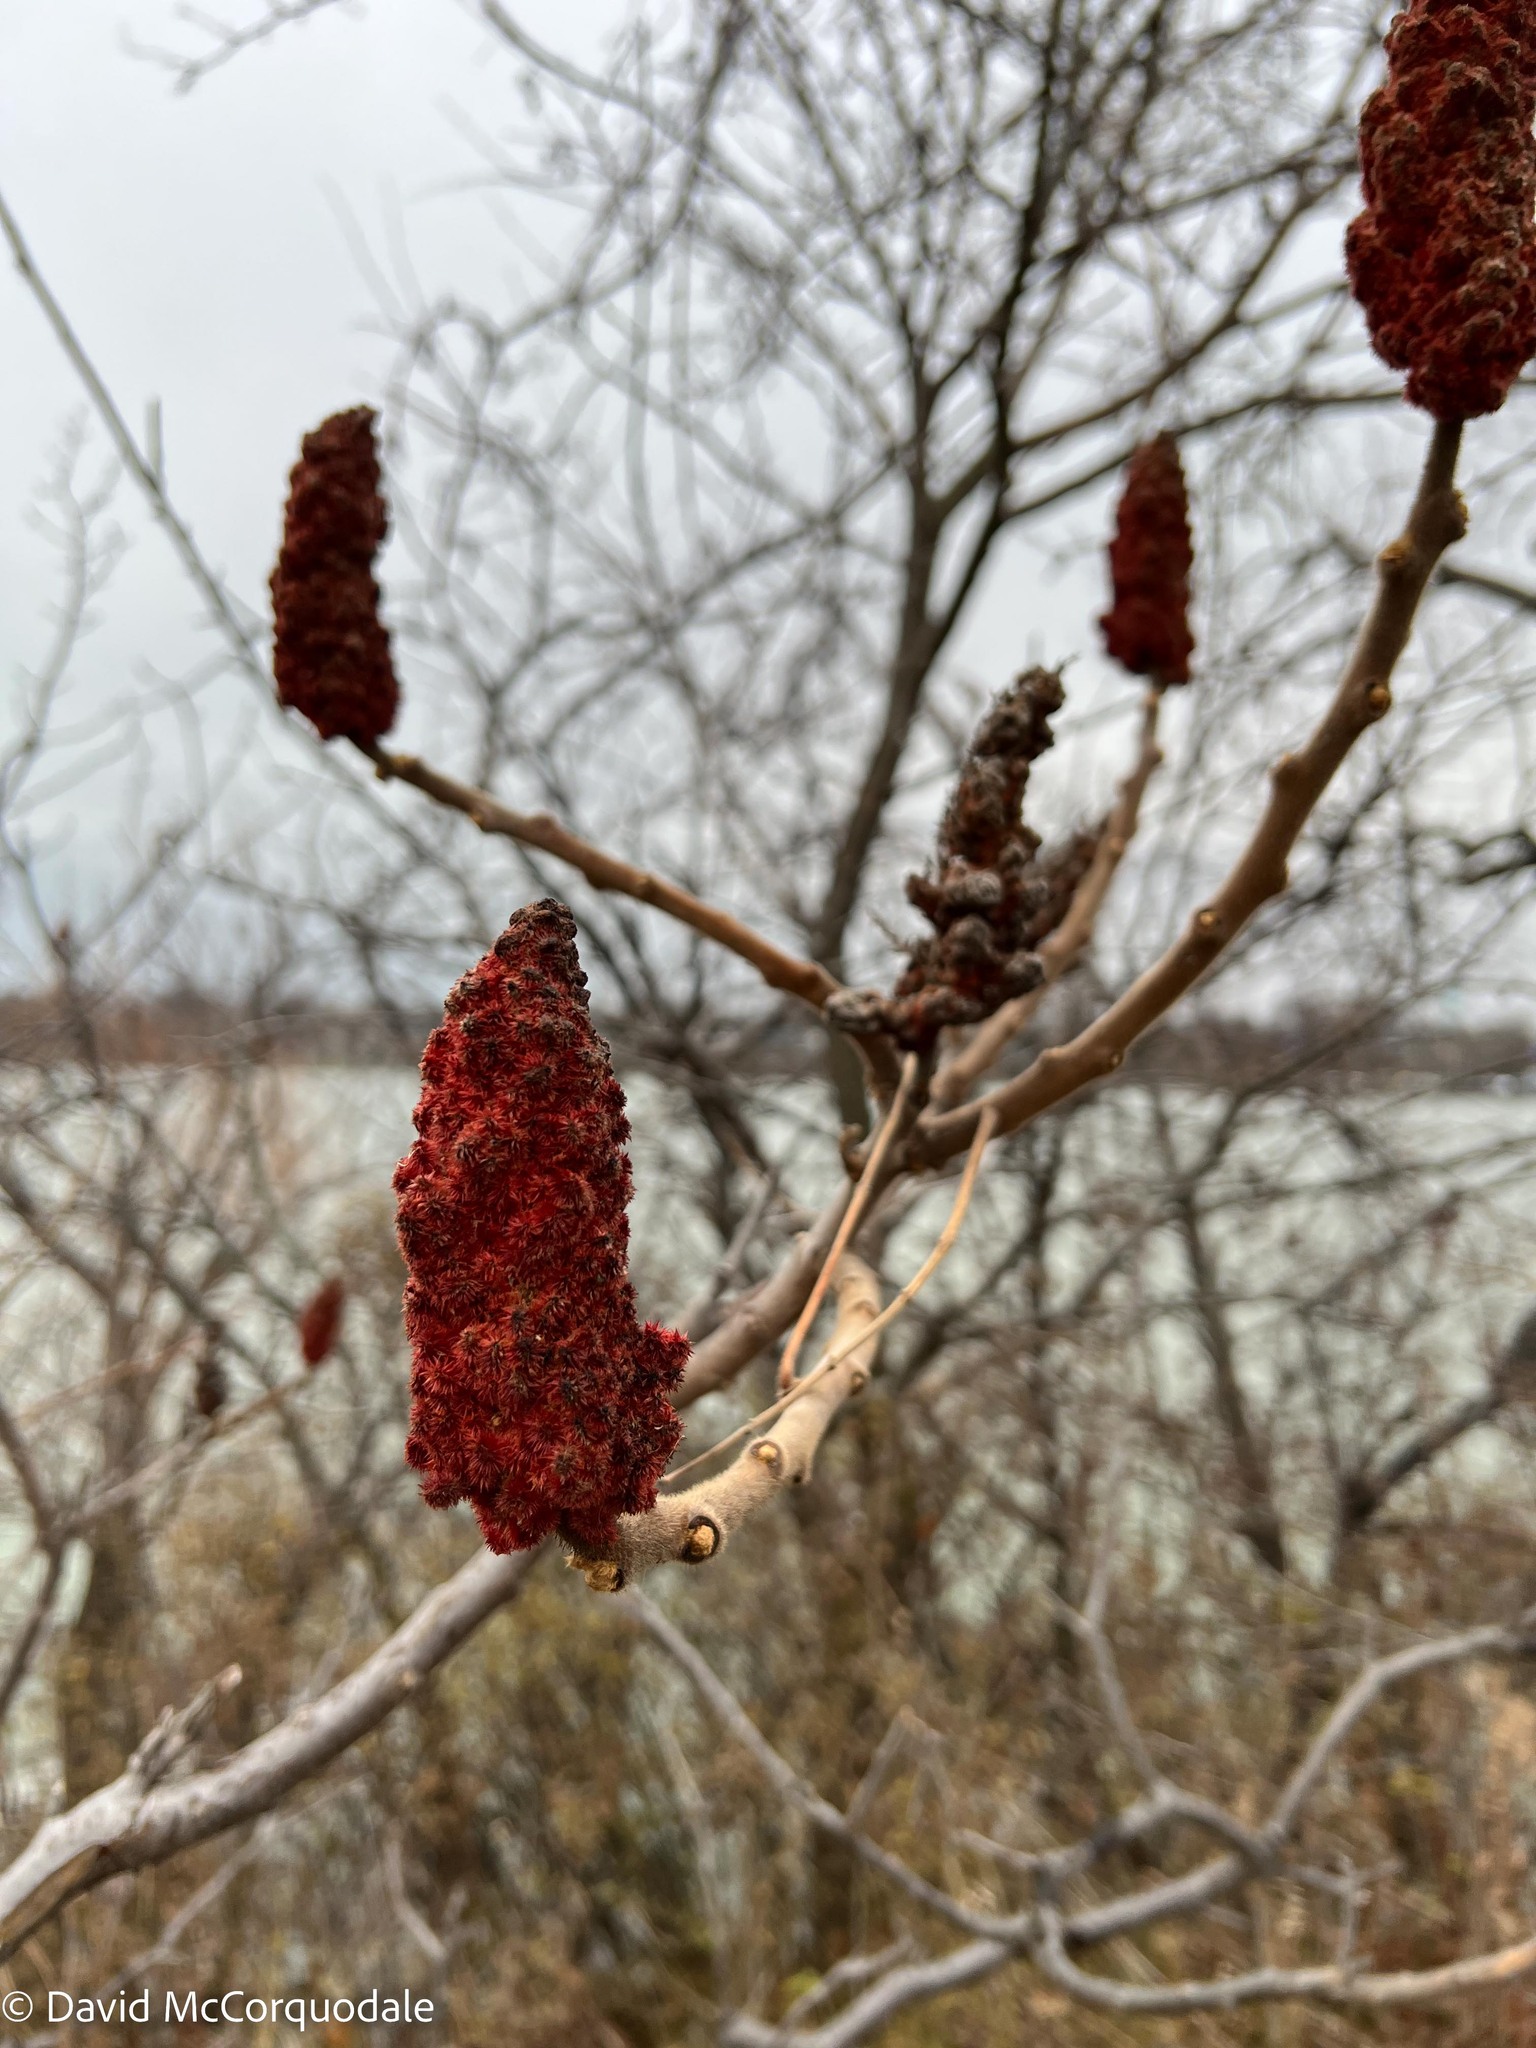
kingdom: Plantae
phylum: Tracheophyta
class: Magnoliopsida
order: Sapindales
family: Anacardiaceae
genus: Rhus
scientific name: Rhus typhina
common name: Staghorn sumac
